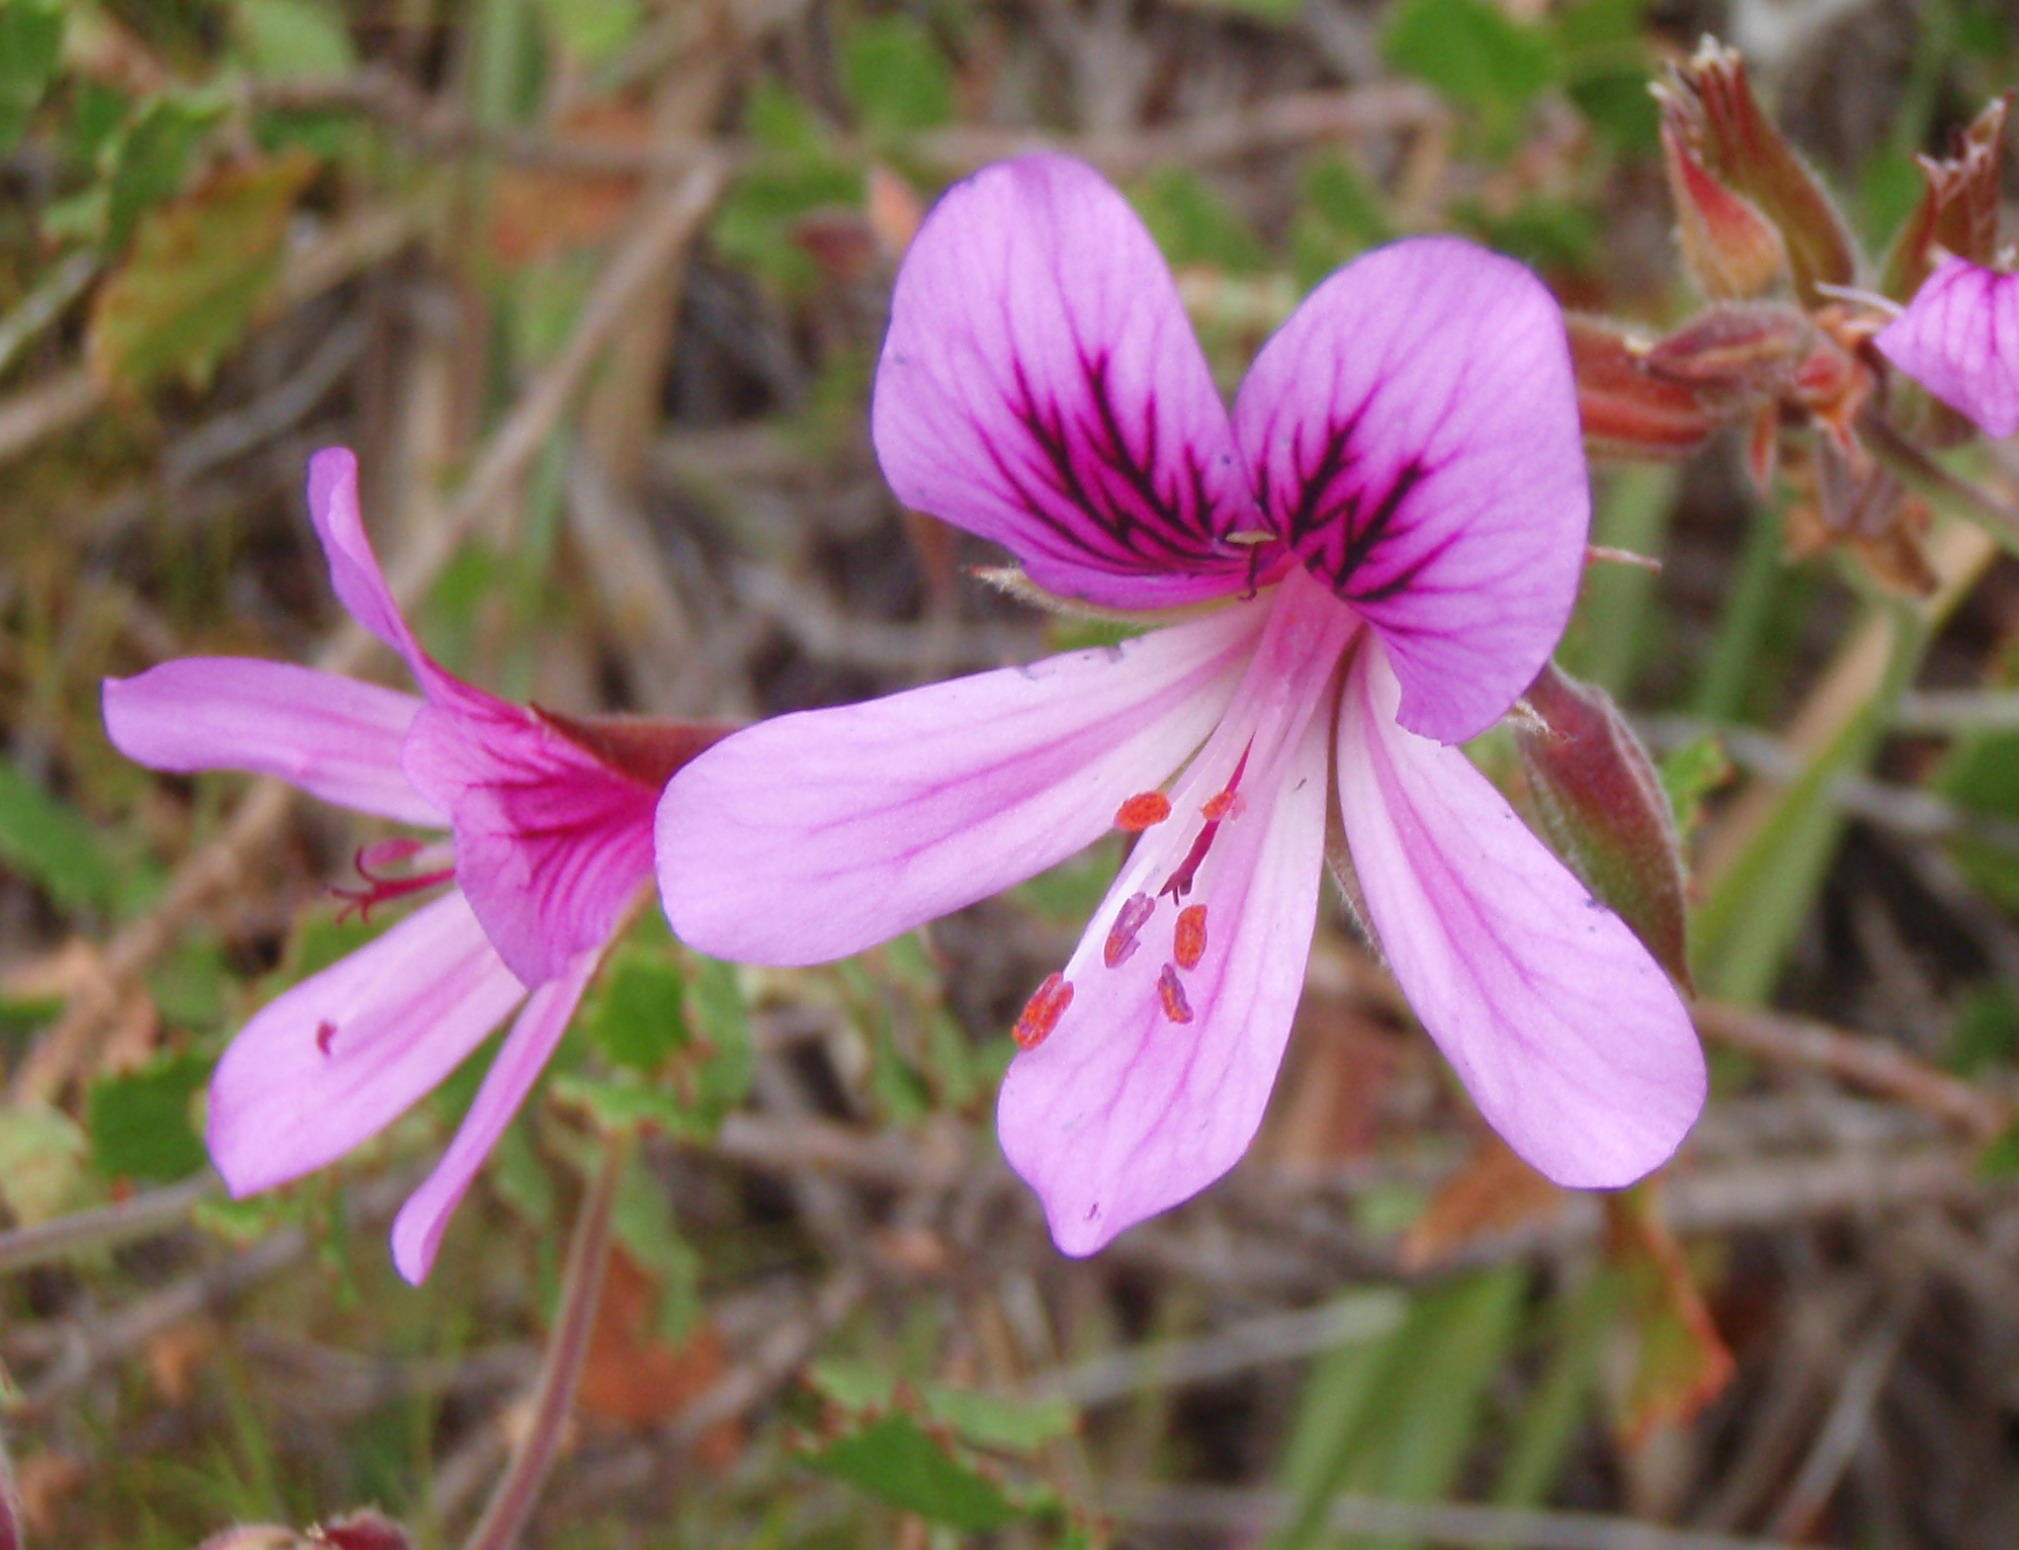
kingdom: Plantae
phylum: Tracheophyta
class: Magnoliopsida
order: Geraniales
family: Geraniaceae
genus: Pelargonium
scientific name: Pelargonium betulinum
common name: Birch-leaf pelargonium
